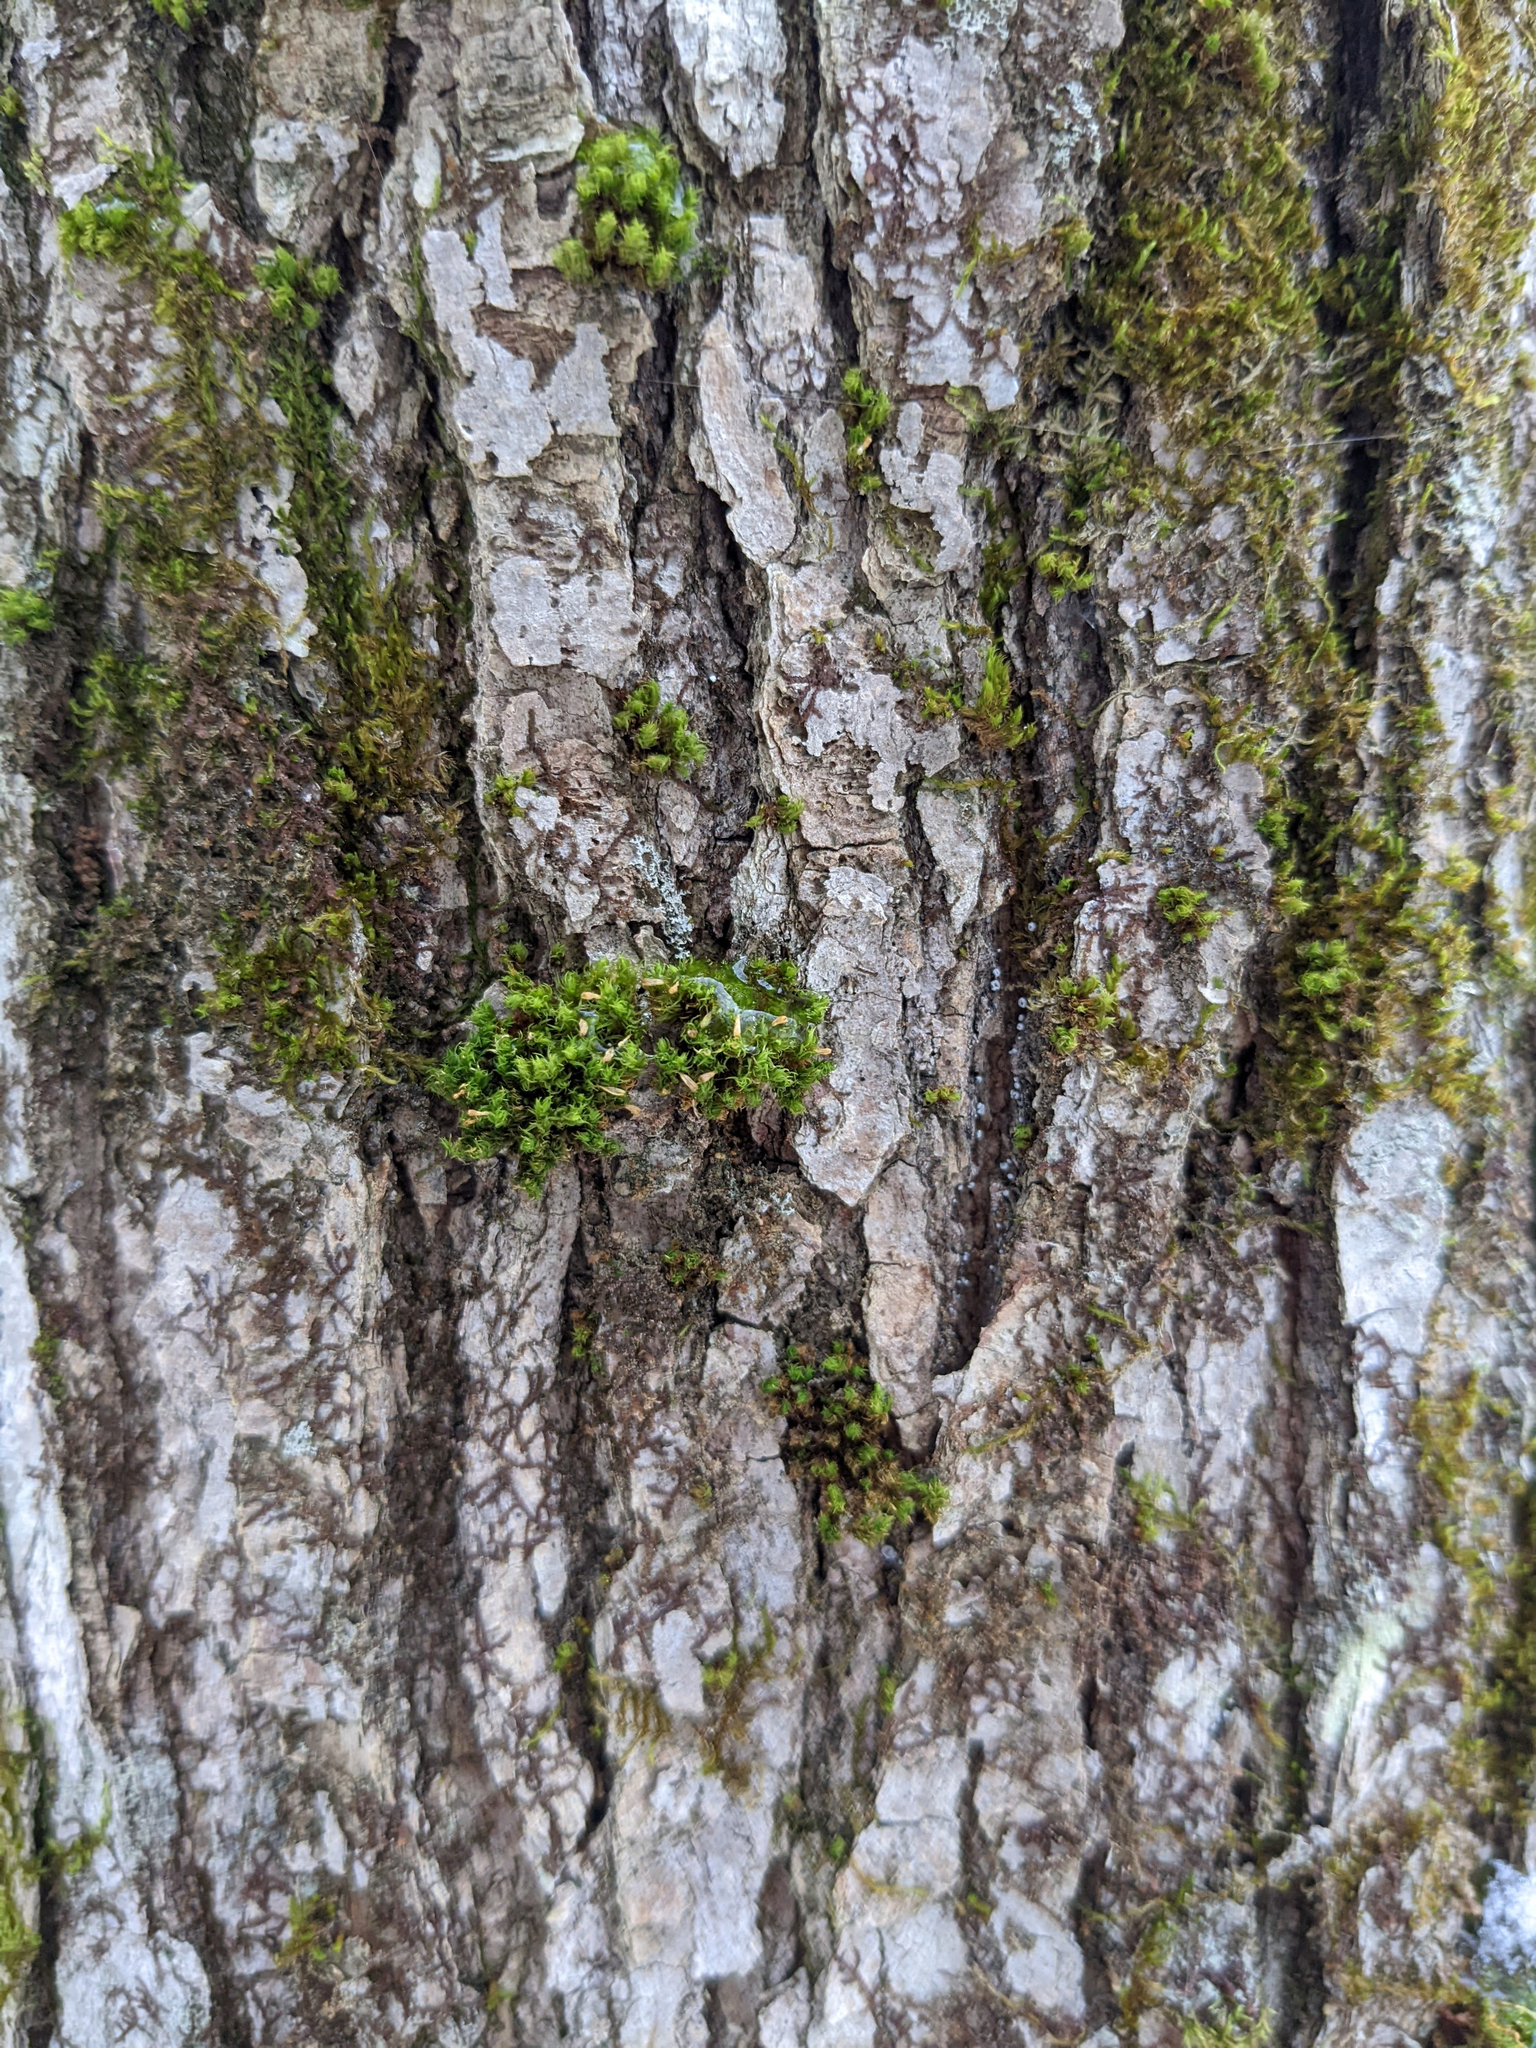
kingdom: Plantae
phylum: Bryophyta
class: Bryopsida
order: Orthotrichales
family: Orthotrichaceae
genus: Ulota
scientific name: Ulota crispa
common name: Crisped pincushion moss
